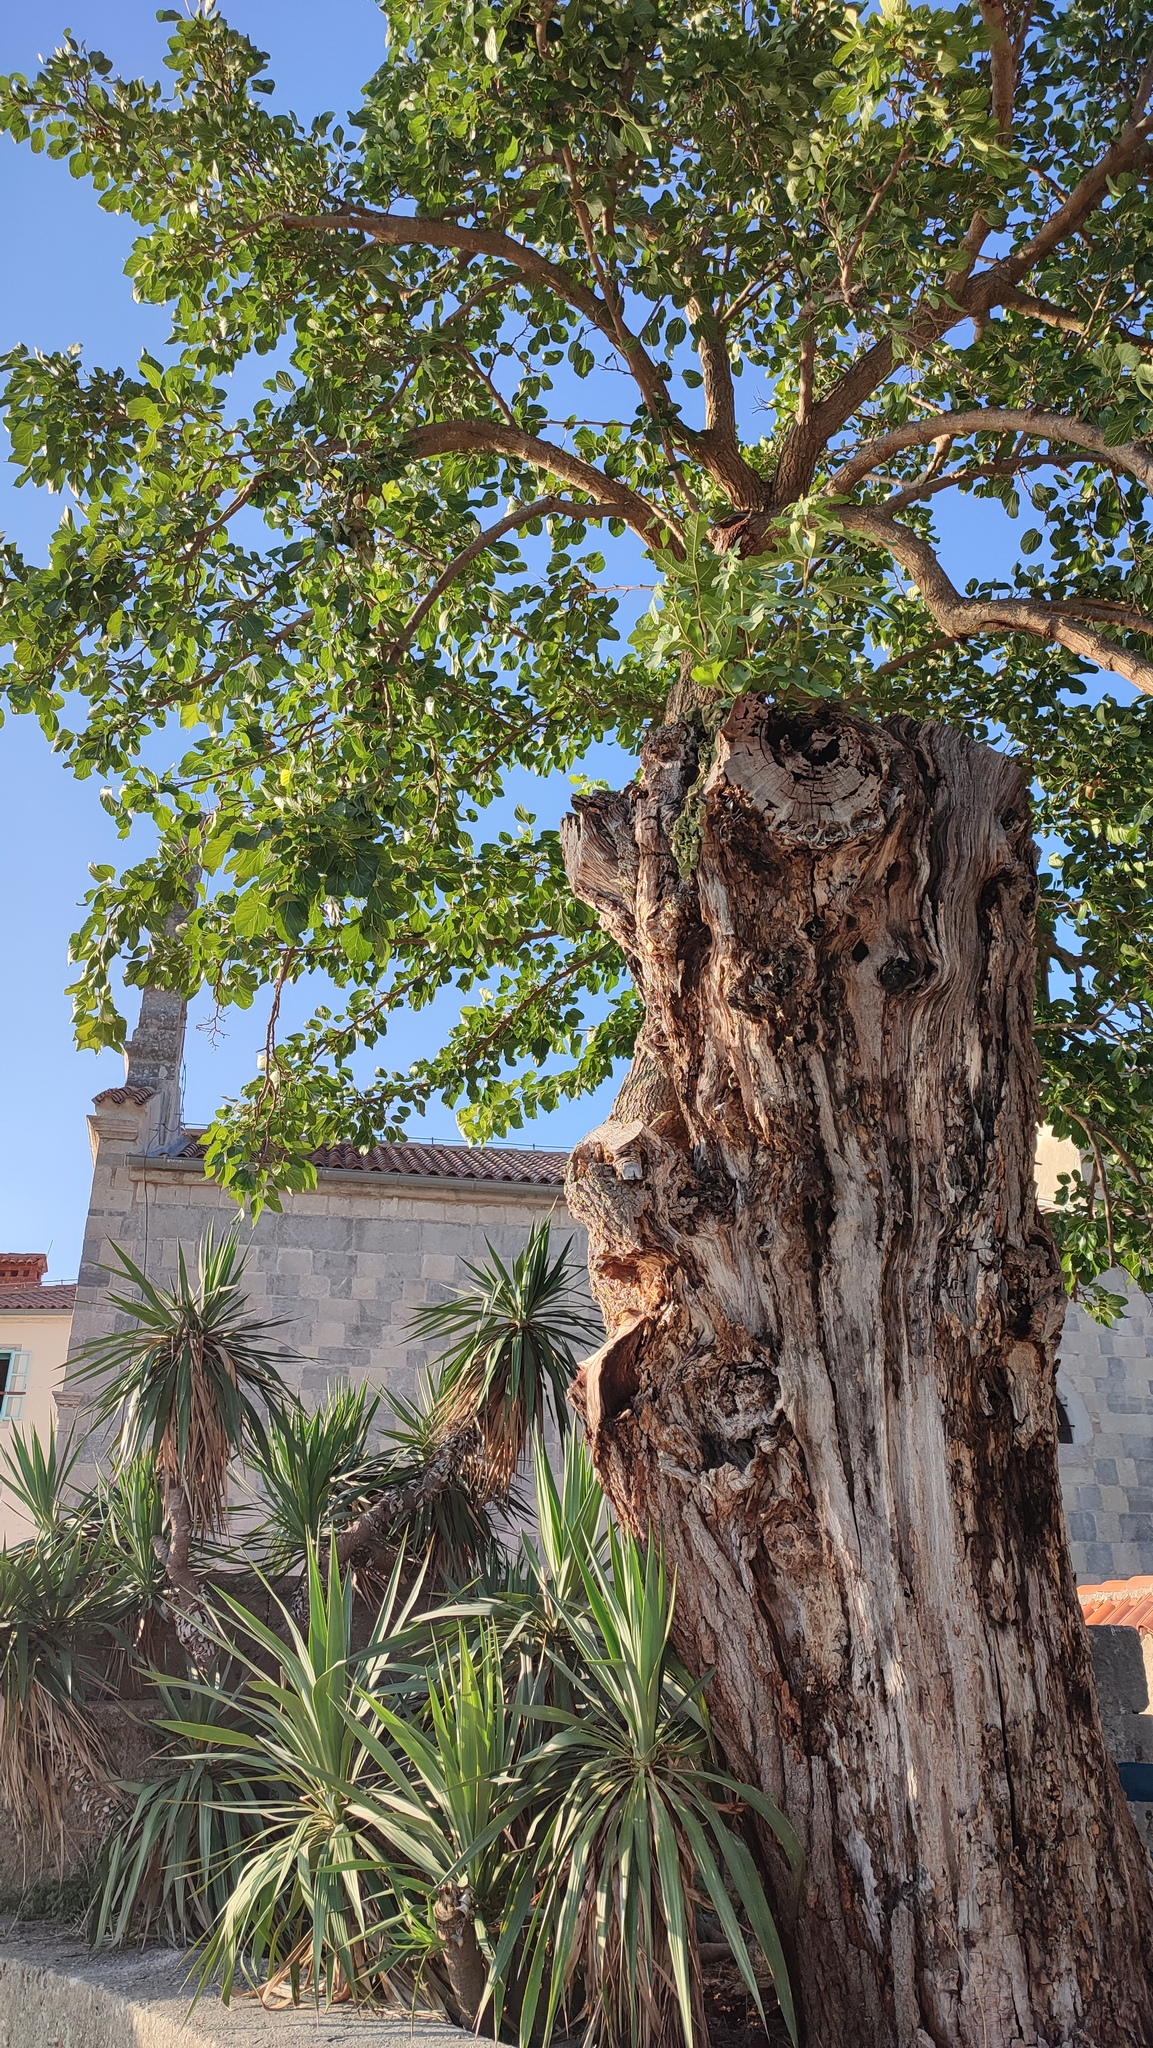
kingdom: Plantae
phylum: Tracheophyta
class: Magnoliopsida
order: Rosales
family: Moraceae
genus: Morus
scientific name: Morus alba
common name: White mulberry
